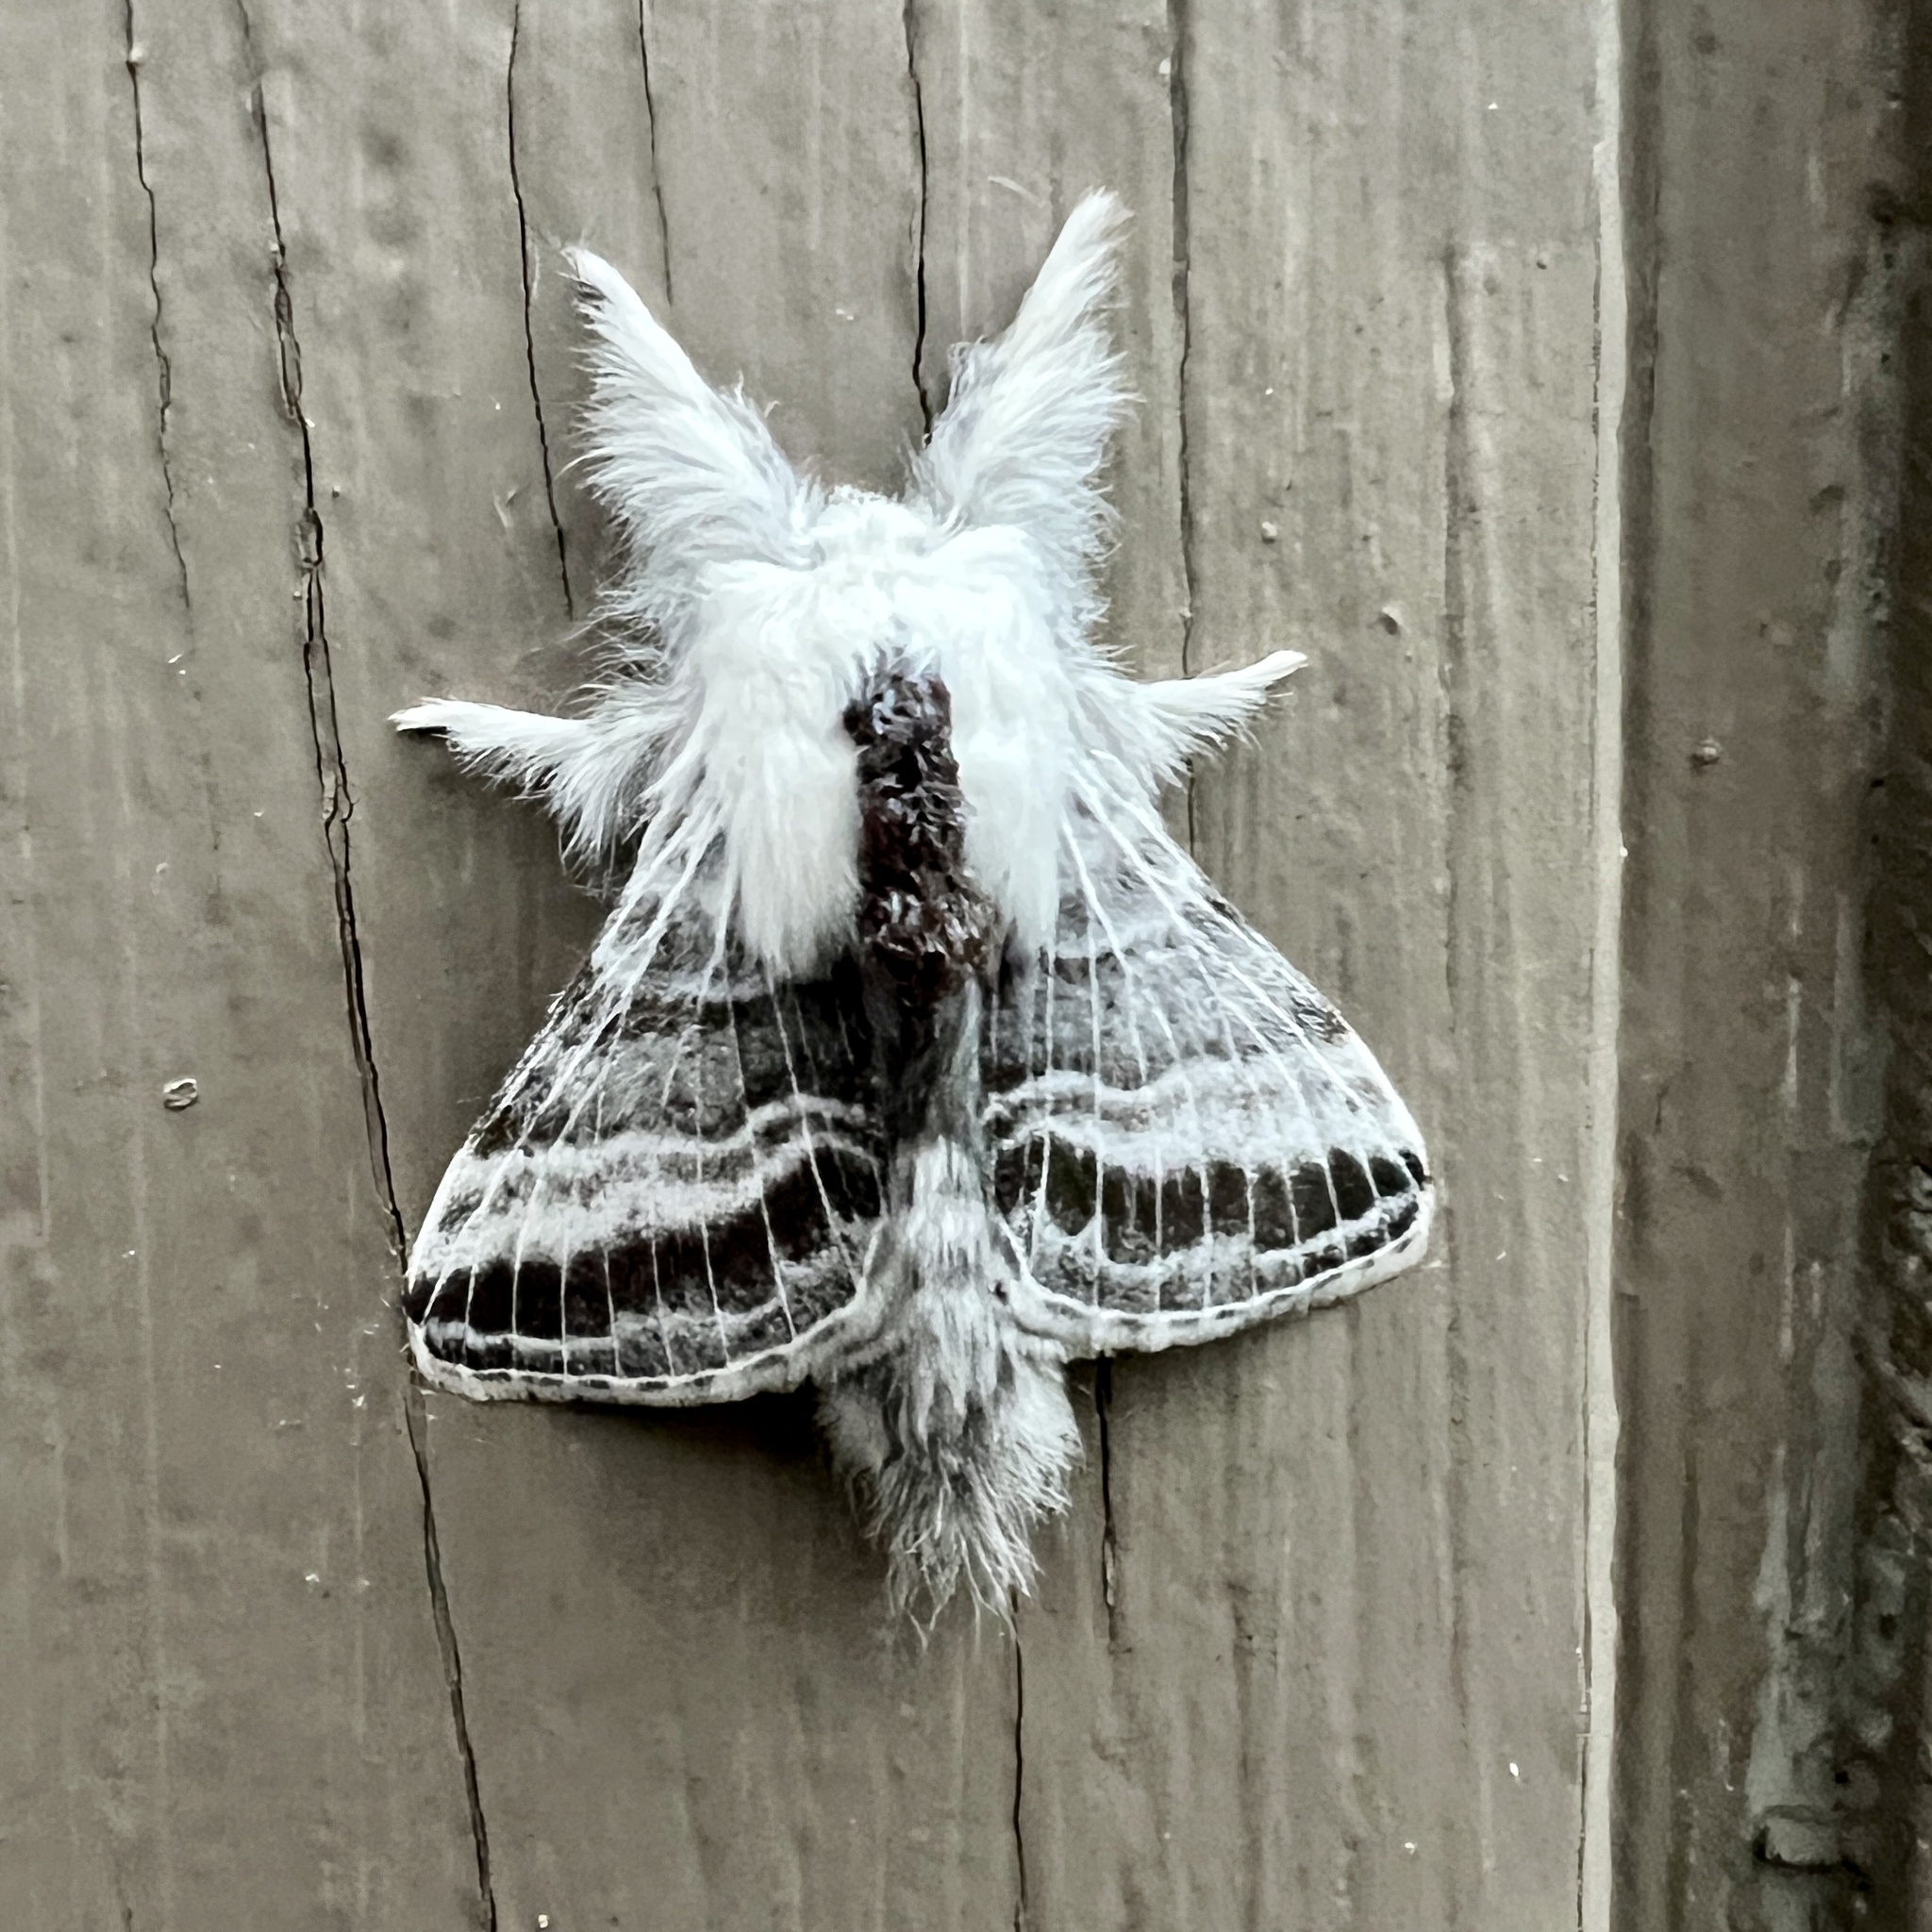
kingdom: Animalia
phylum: Arthropoda
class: Insecta
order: Lepidoptera
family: Lasiocampidae
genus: Tolype
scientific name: Tolype velleda
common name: Large tolype moth
